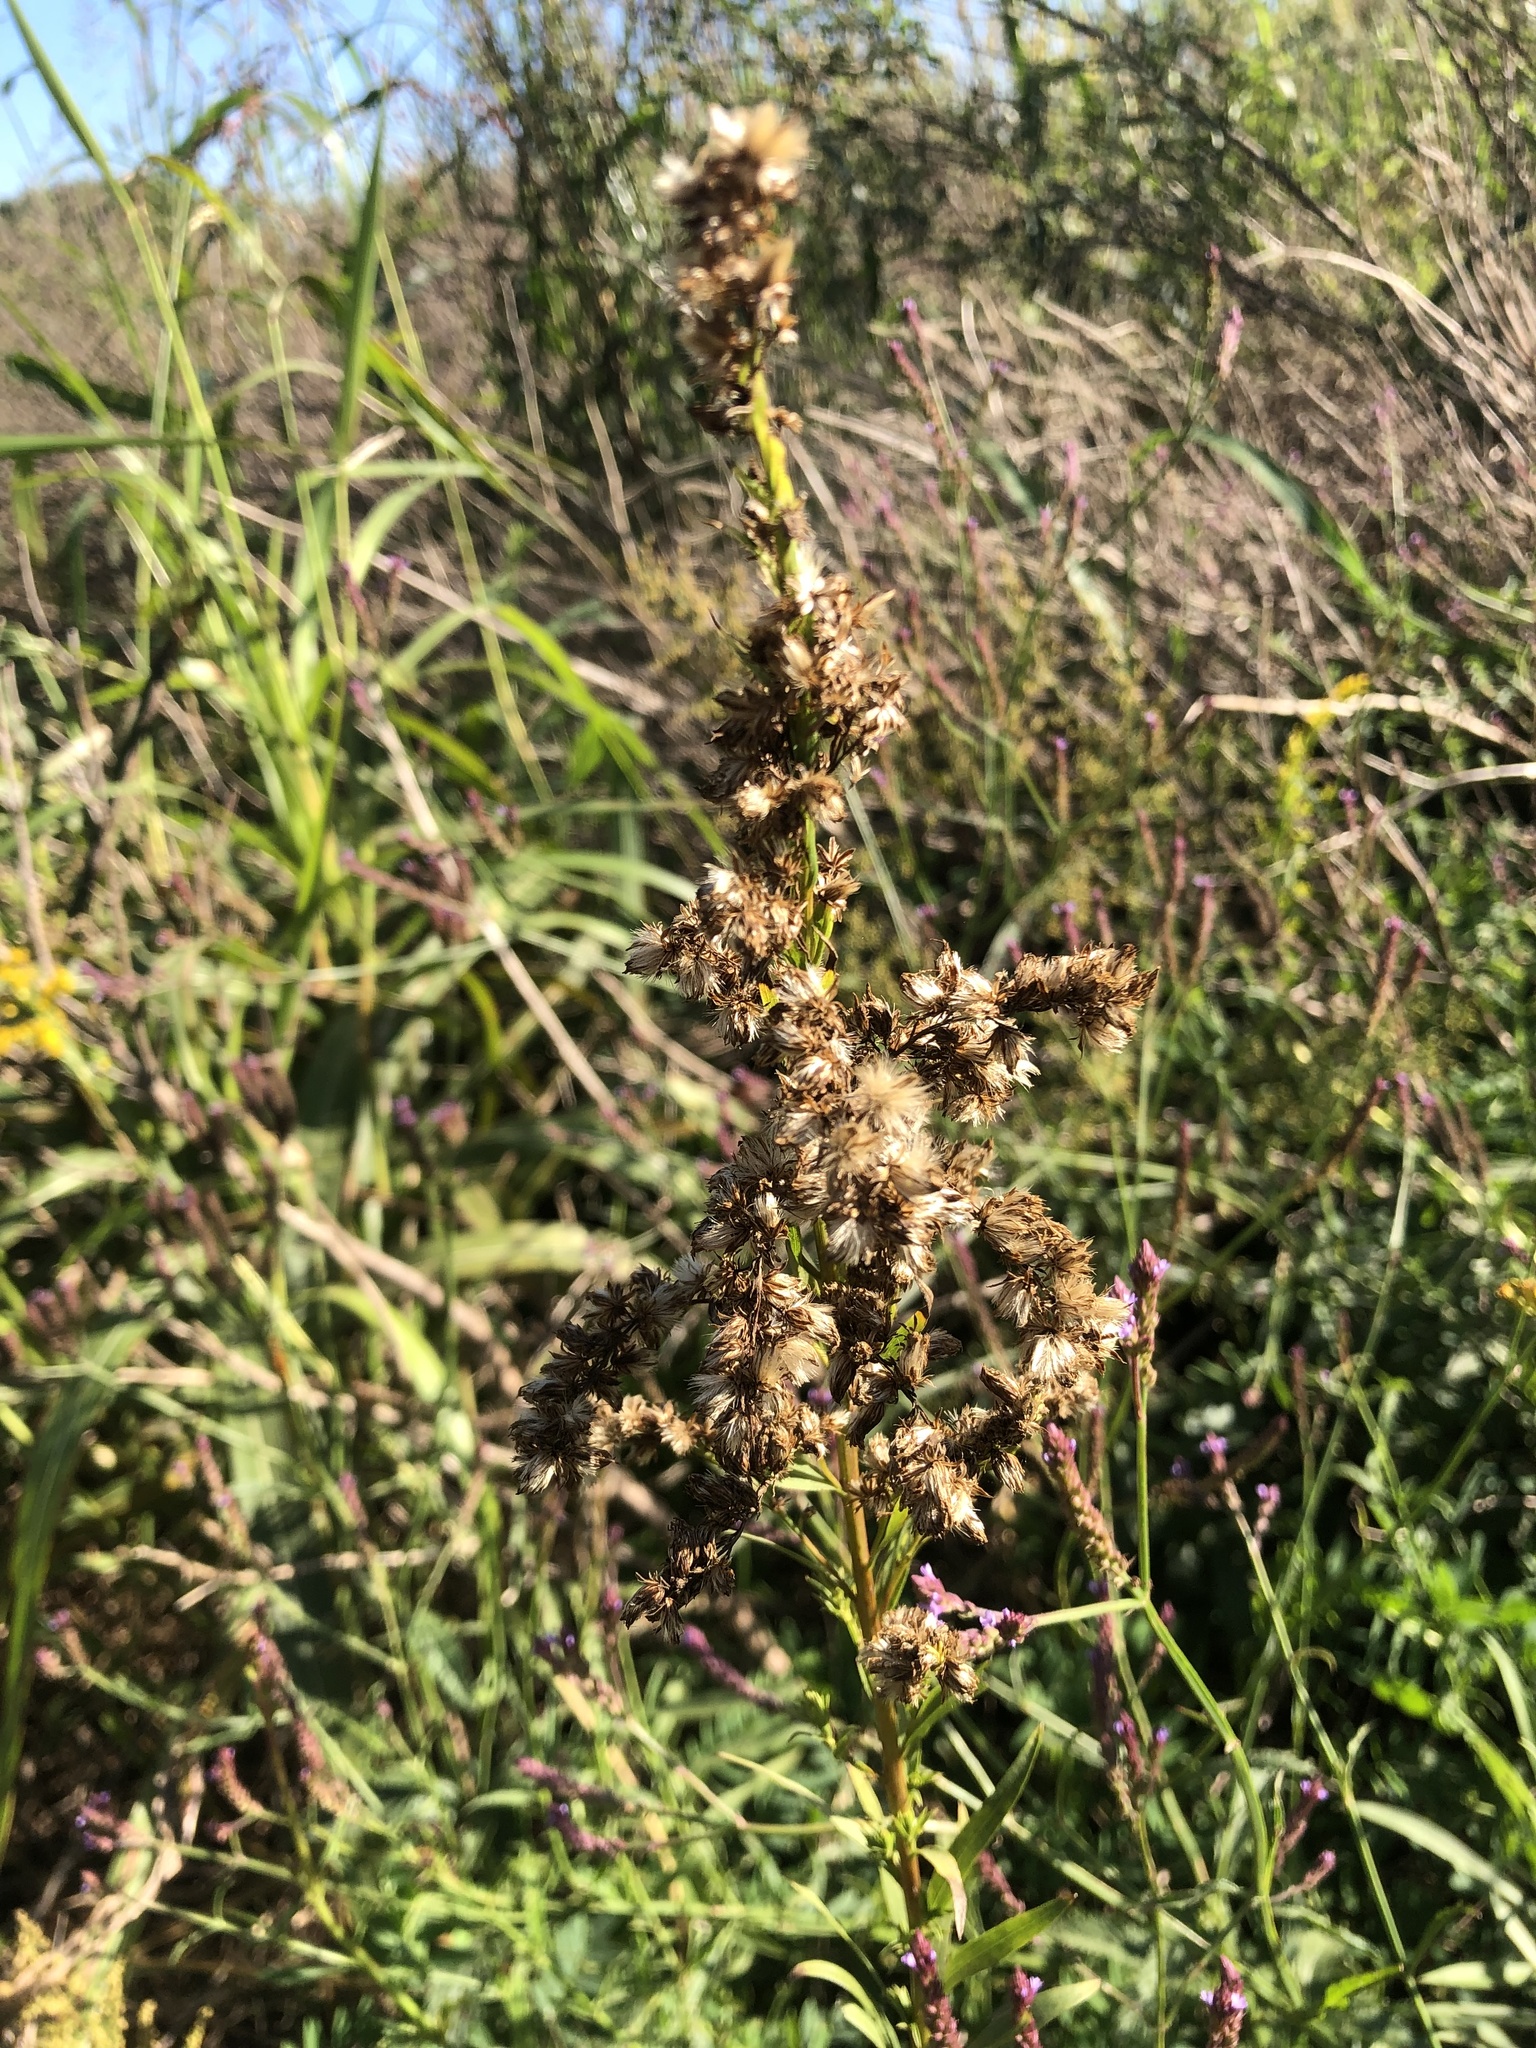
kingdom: Plantae
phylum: Tracheophyta
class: Magnoliopsida
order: Asterales
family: Asteraceae
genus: Solidago
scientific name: Solidago chilensis
